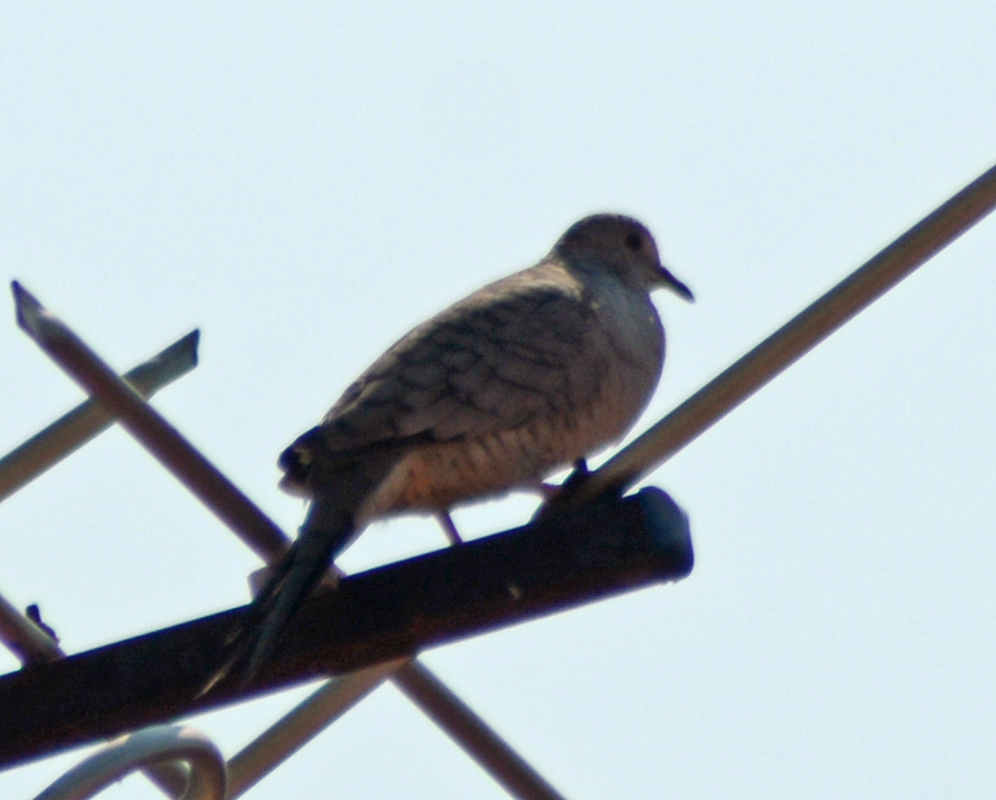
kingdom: Animalia
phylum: Chordata
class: Aves
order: Columbiformes
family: Columbidae
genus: Columbina
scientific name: Columbina inca
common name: Inca dove
